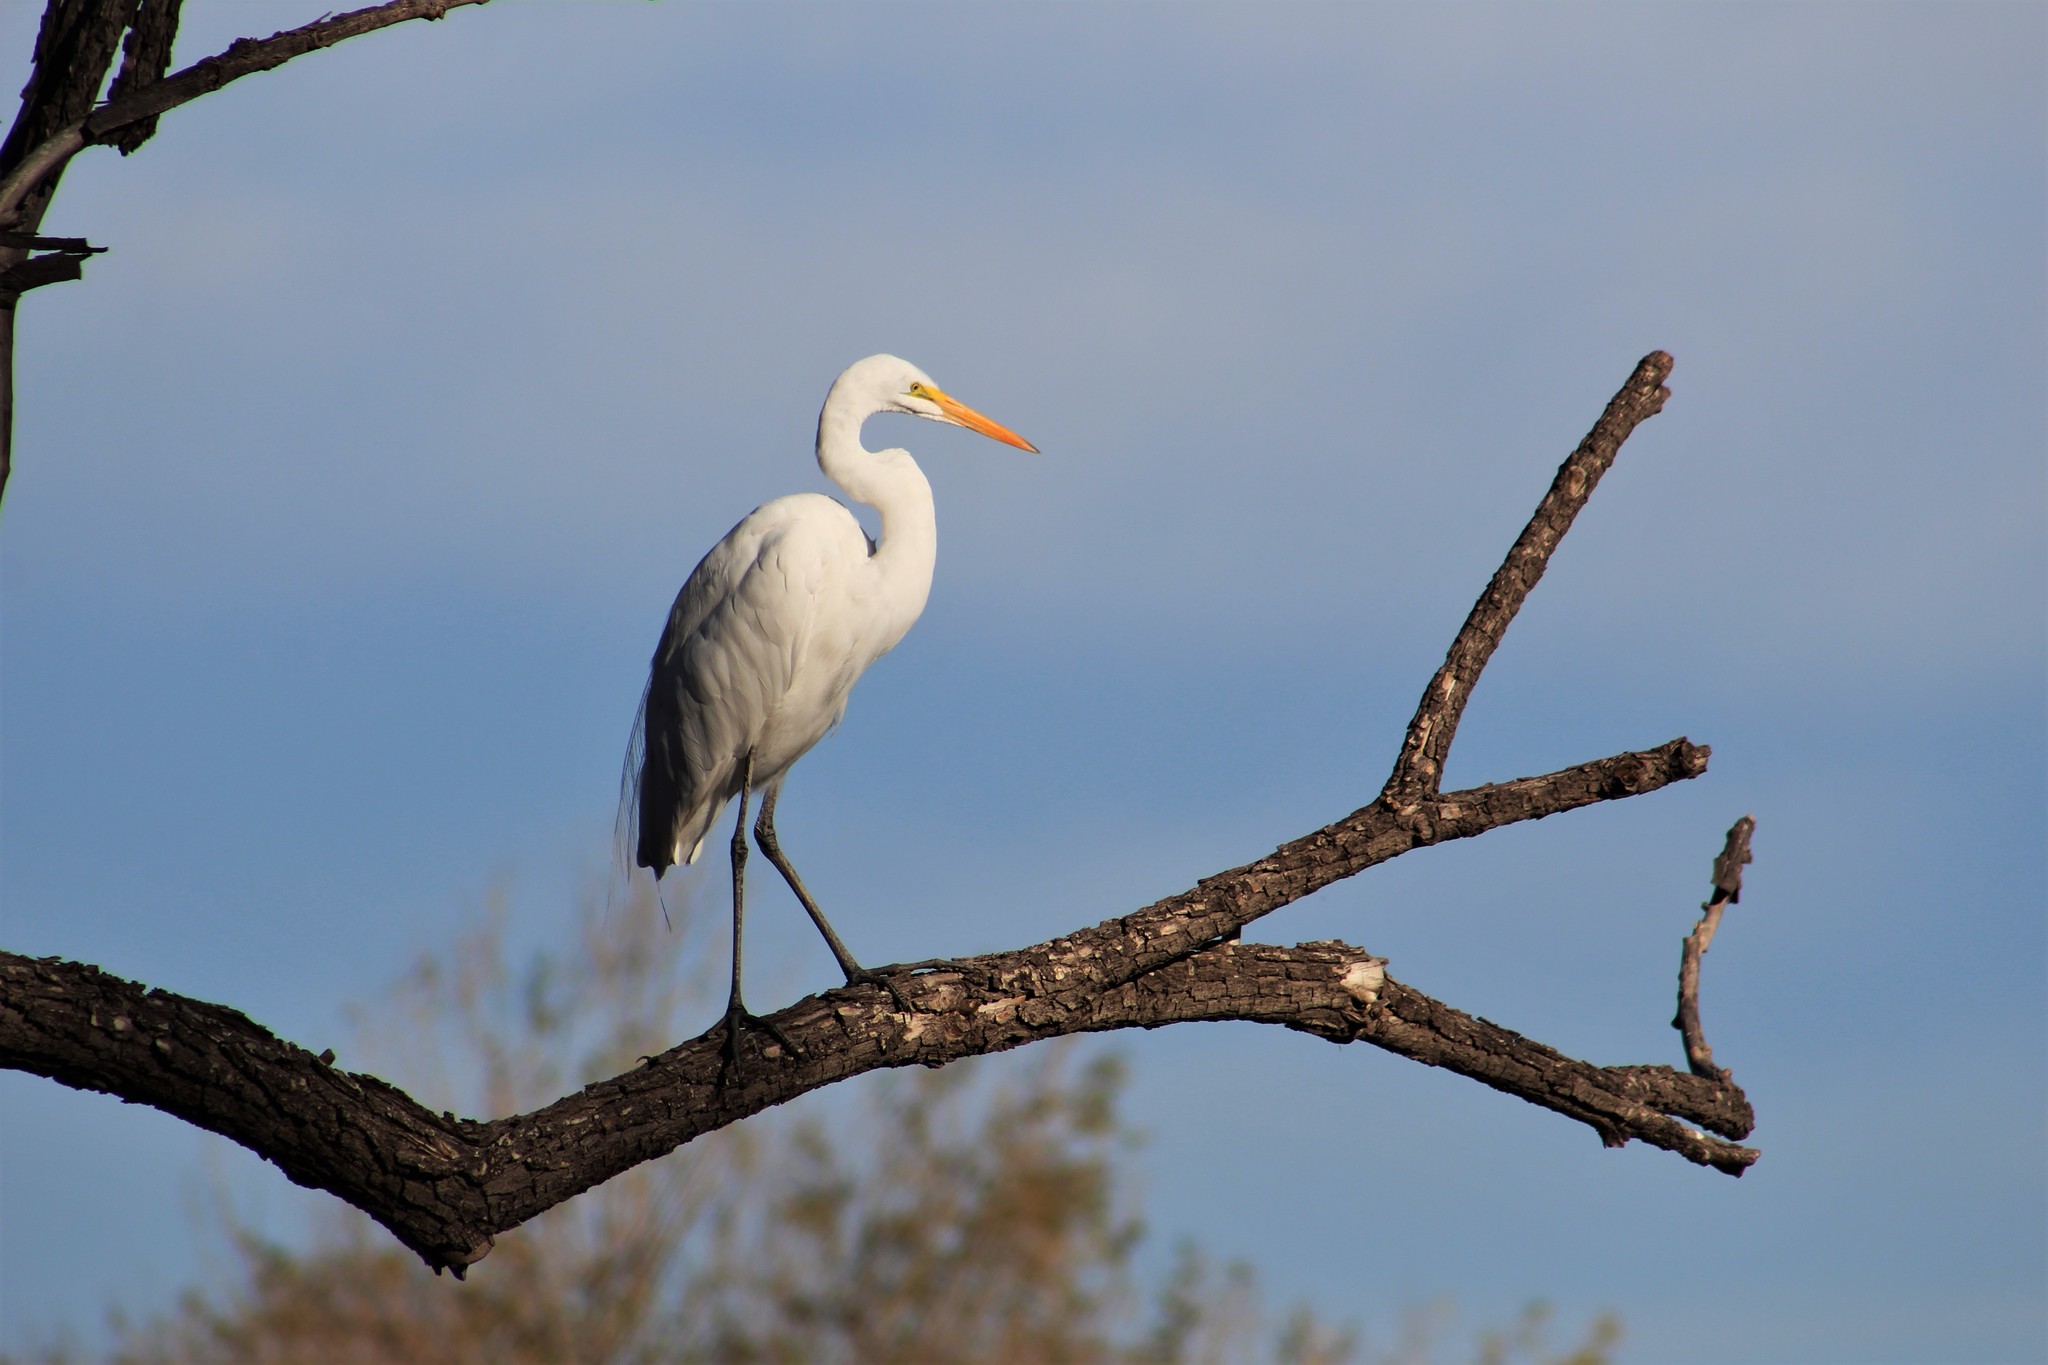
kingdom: Animalia
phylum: Chordata
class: Aves
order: Pelecaniformes
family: Ardeidae
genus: Ardea
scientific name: Ardea alba
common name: Great egret
